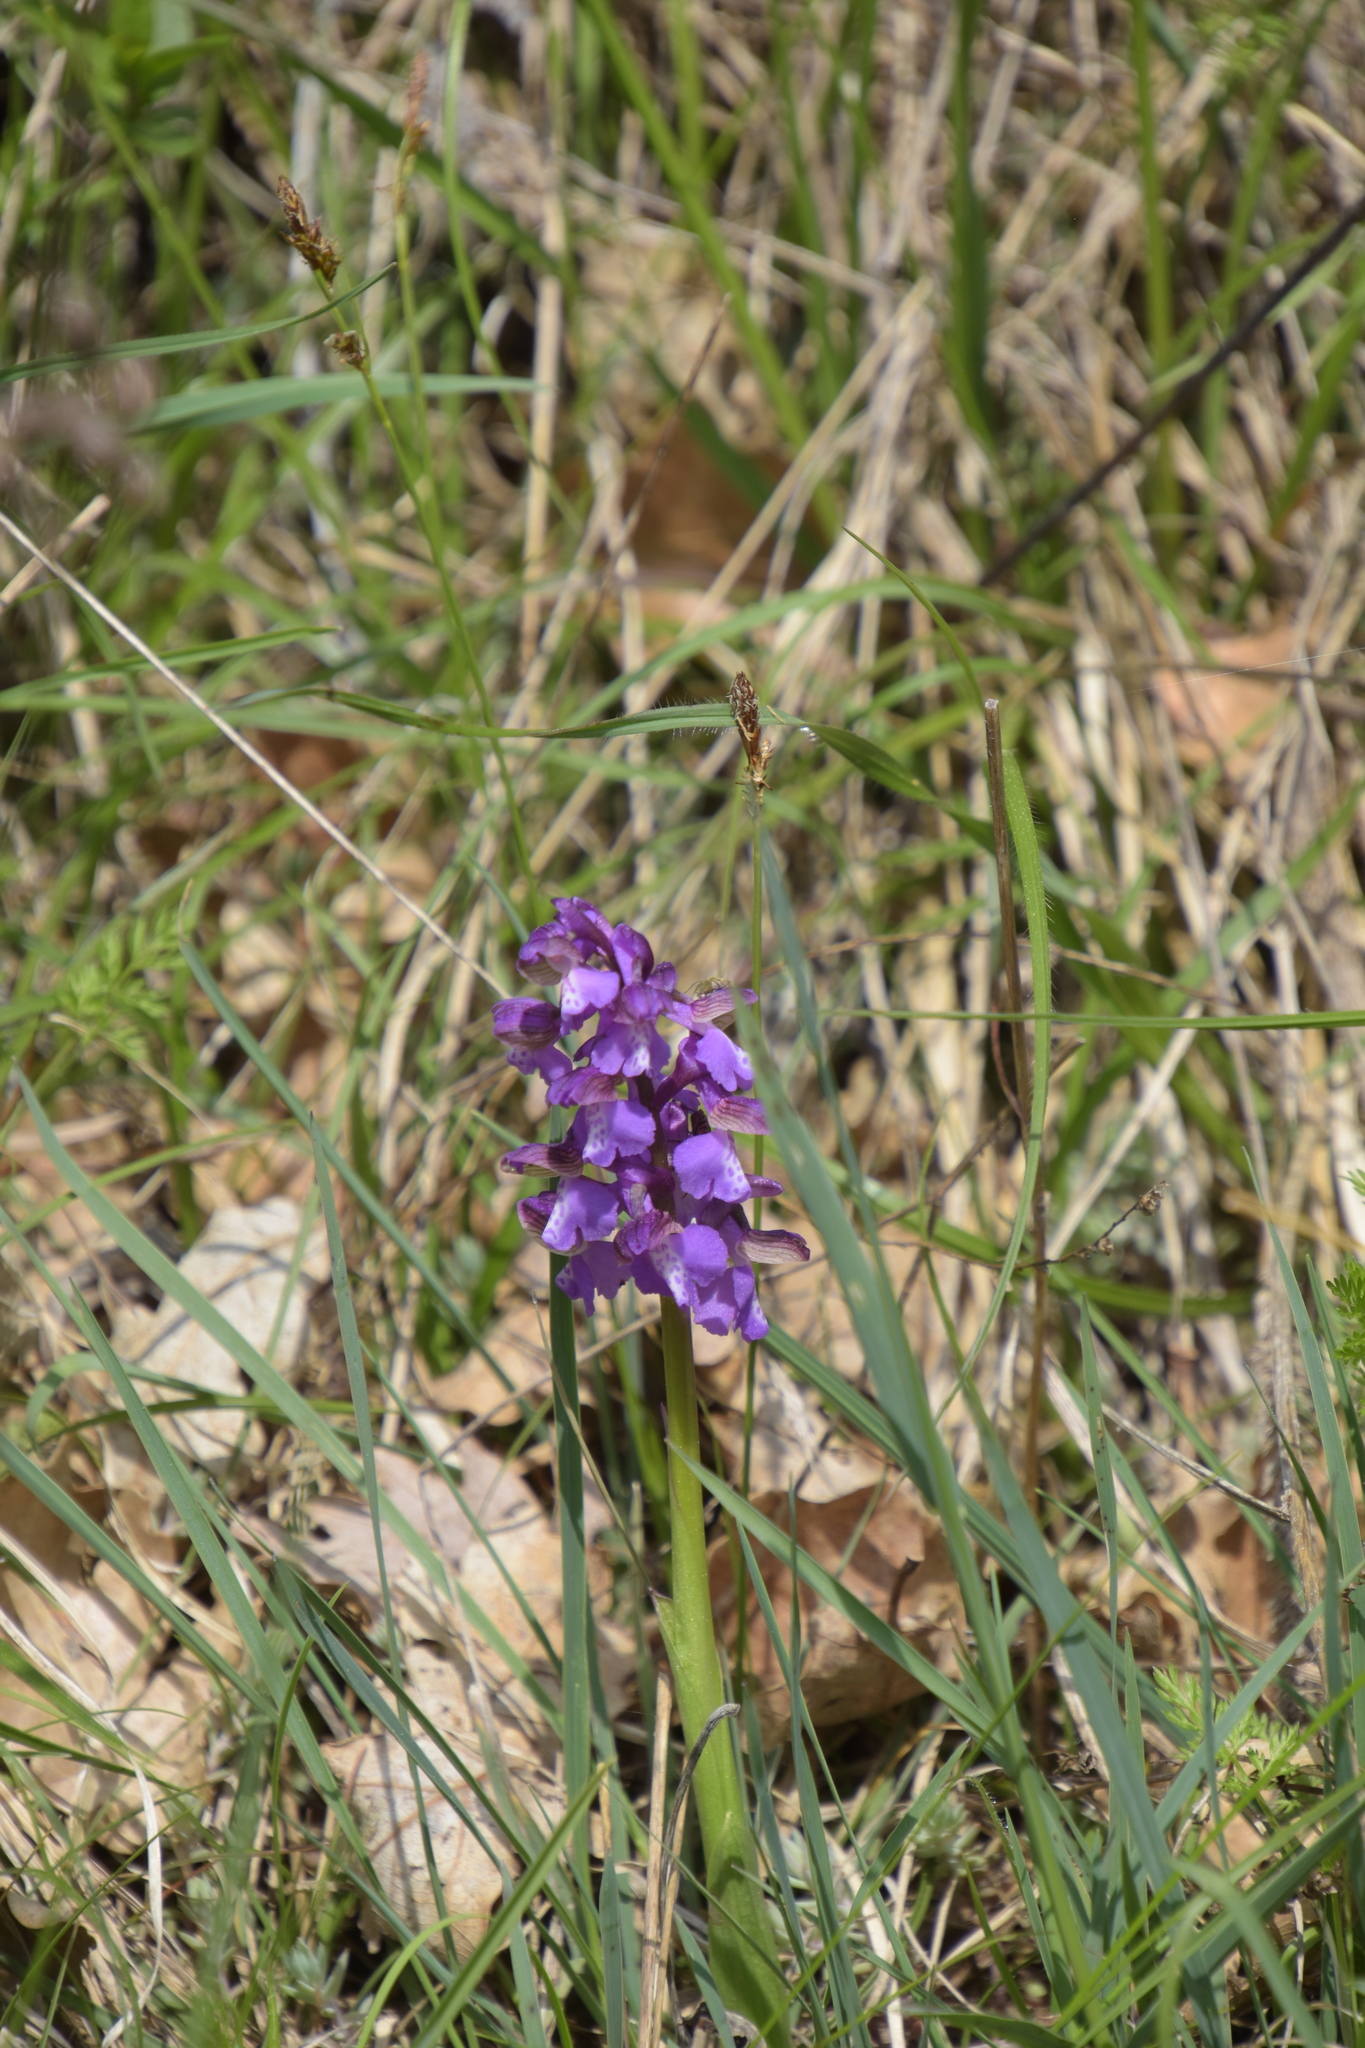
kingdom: Plantae
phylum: Tracheophyta
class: Liliopsida
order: Asparagales
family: Orchidaceae
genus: Anacamptis
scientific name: Anacamptis morio
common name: Green-winged orchid
